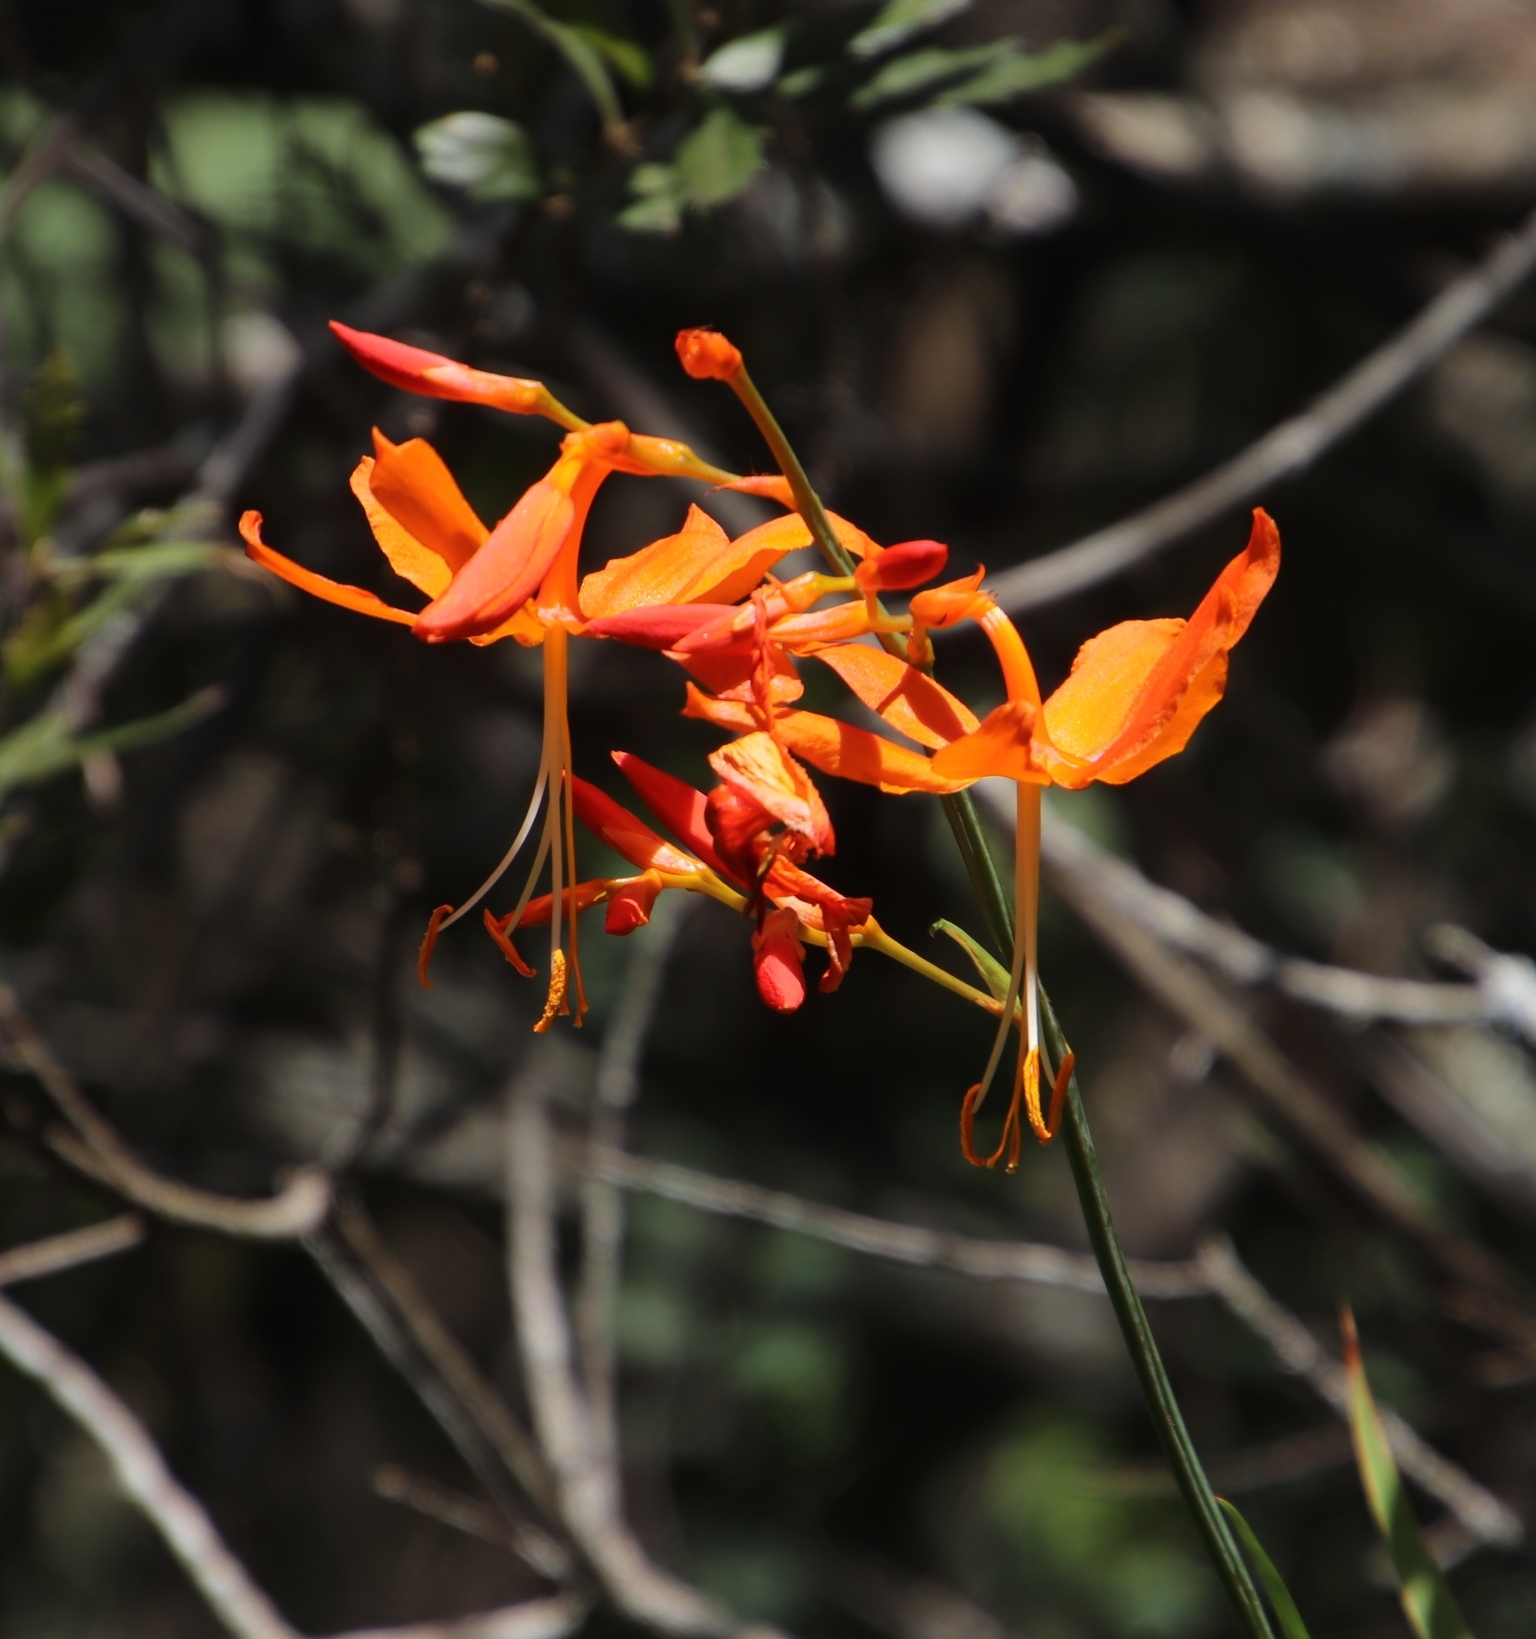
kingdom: Plantae
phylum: Tracheophyta
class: Liliopsida
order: Asparagales
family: Iridaceae
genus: Crocosmia
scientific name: Crocosmia aurea
